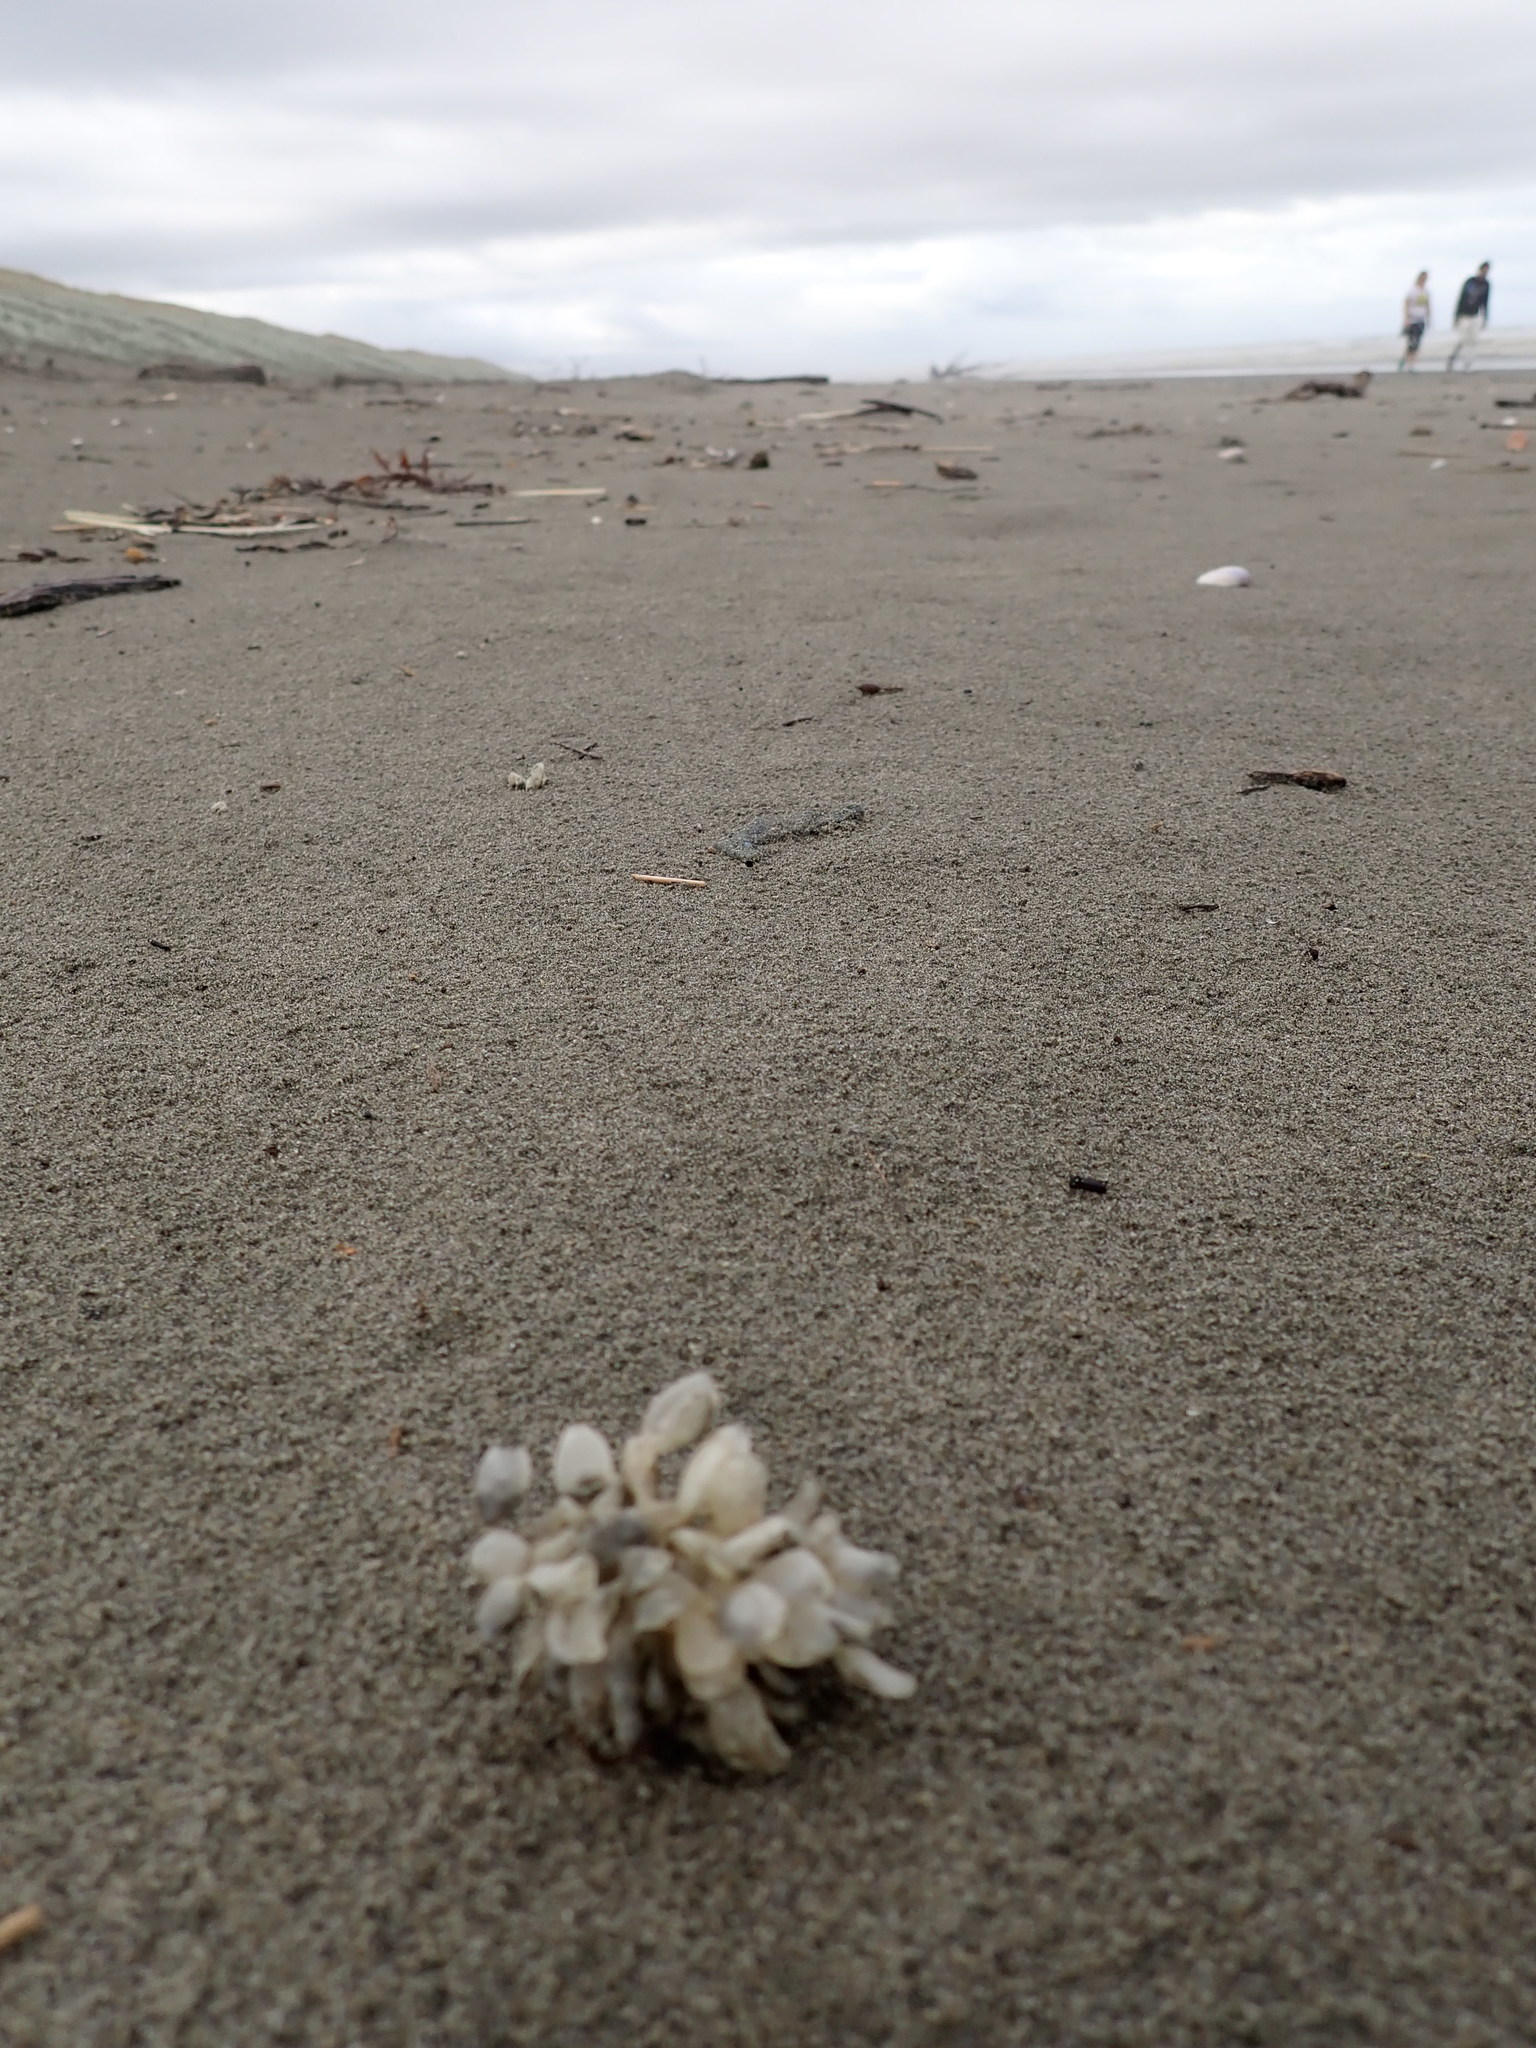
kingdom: Animalia
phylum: Mollusca
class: Gastropoda
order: Neogastropoda
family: Cominellidae
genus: Cominella
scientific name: Cominella adspersa
